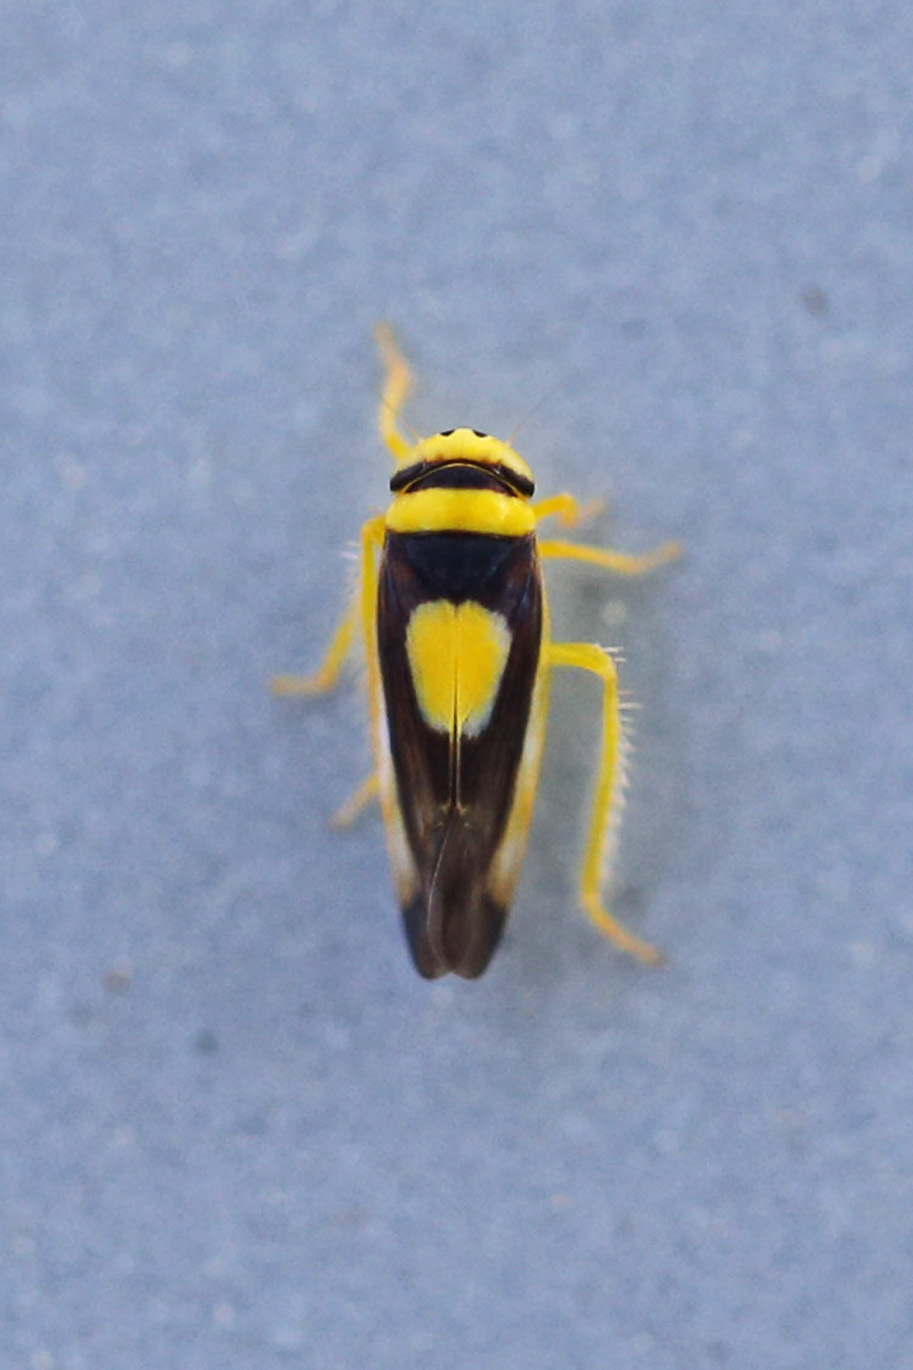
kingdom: Animalia
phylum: Arthropoda
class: Insecta
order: Hemiptera
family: Cicadellidae
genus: Colladonus
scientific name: Colladonus clitellarius
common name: The saddleback leafhopper
